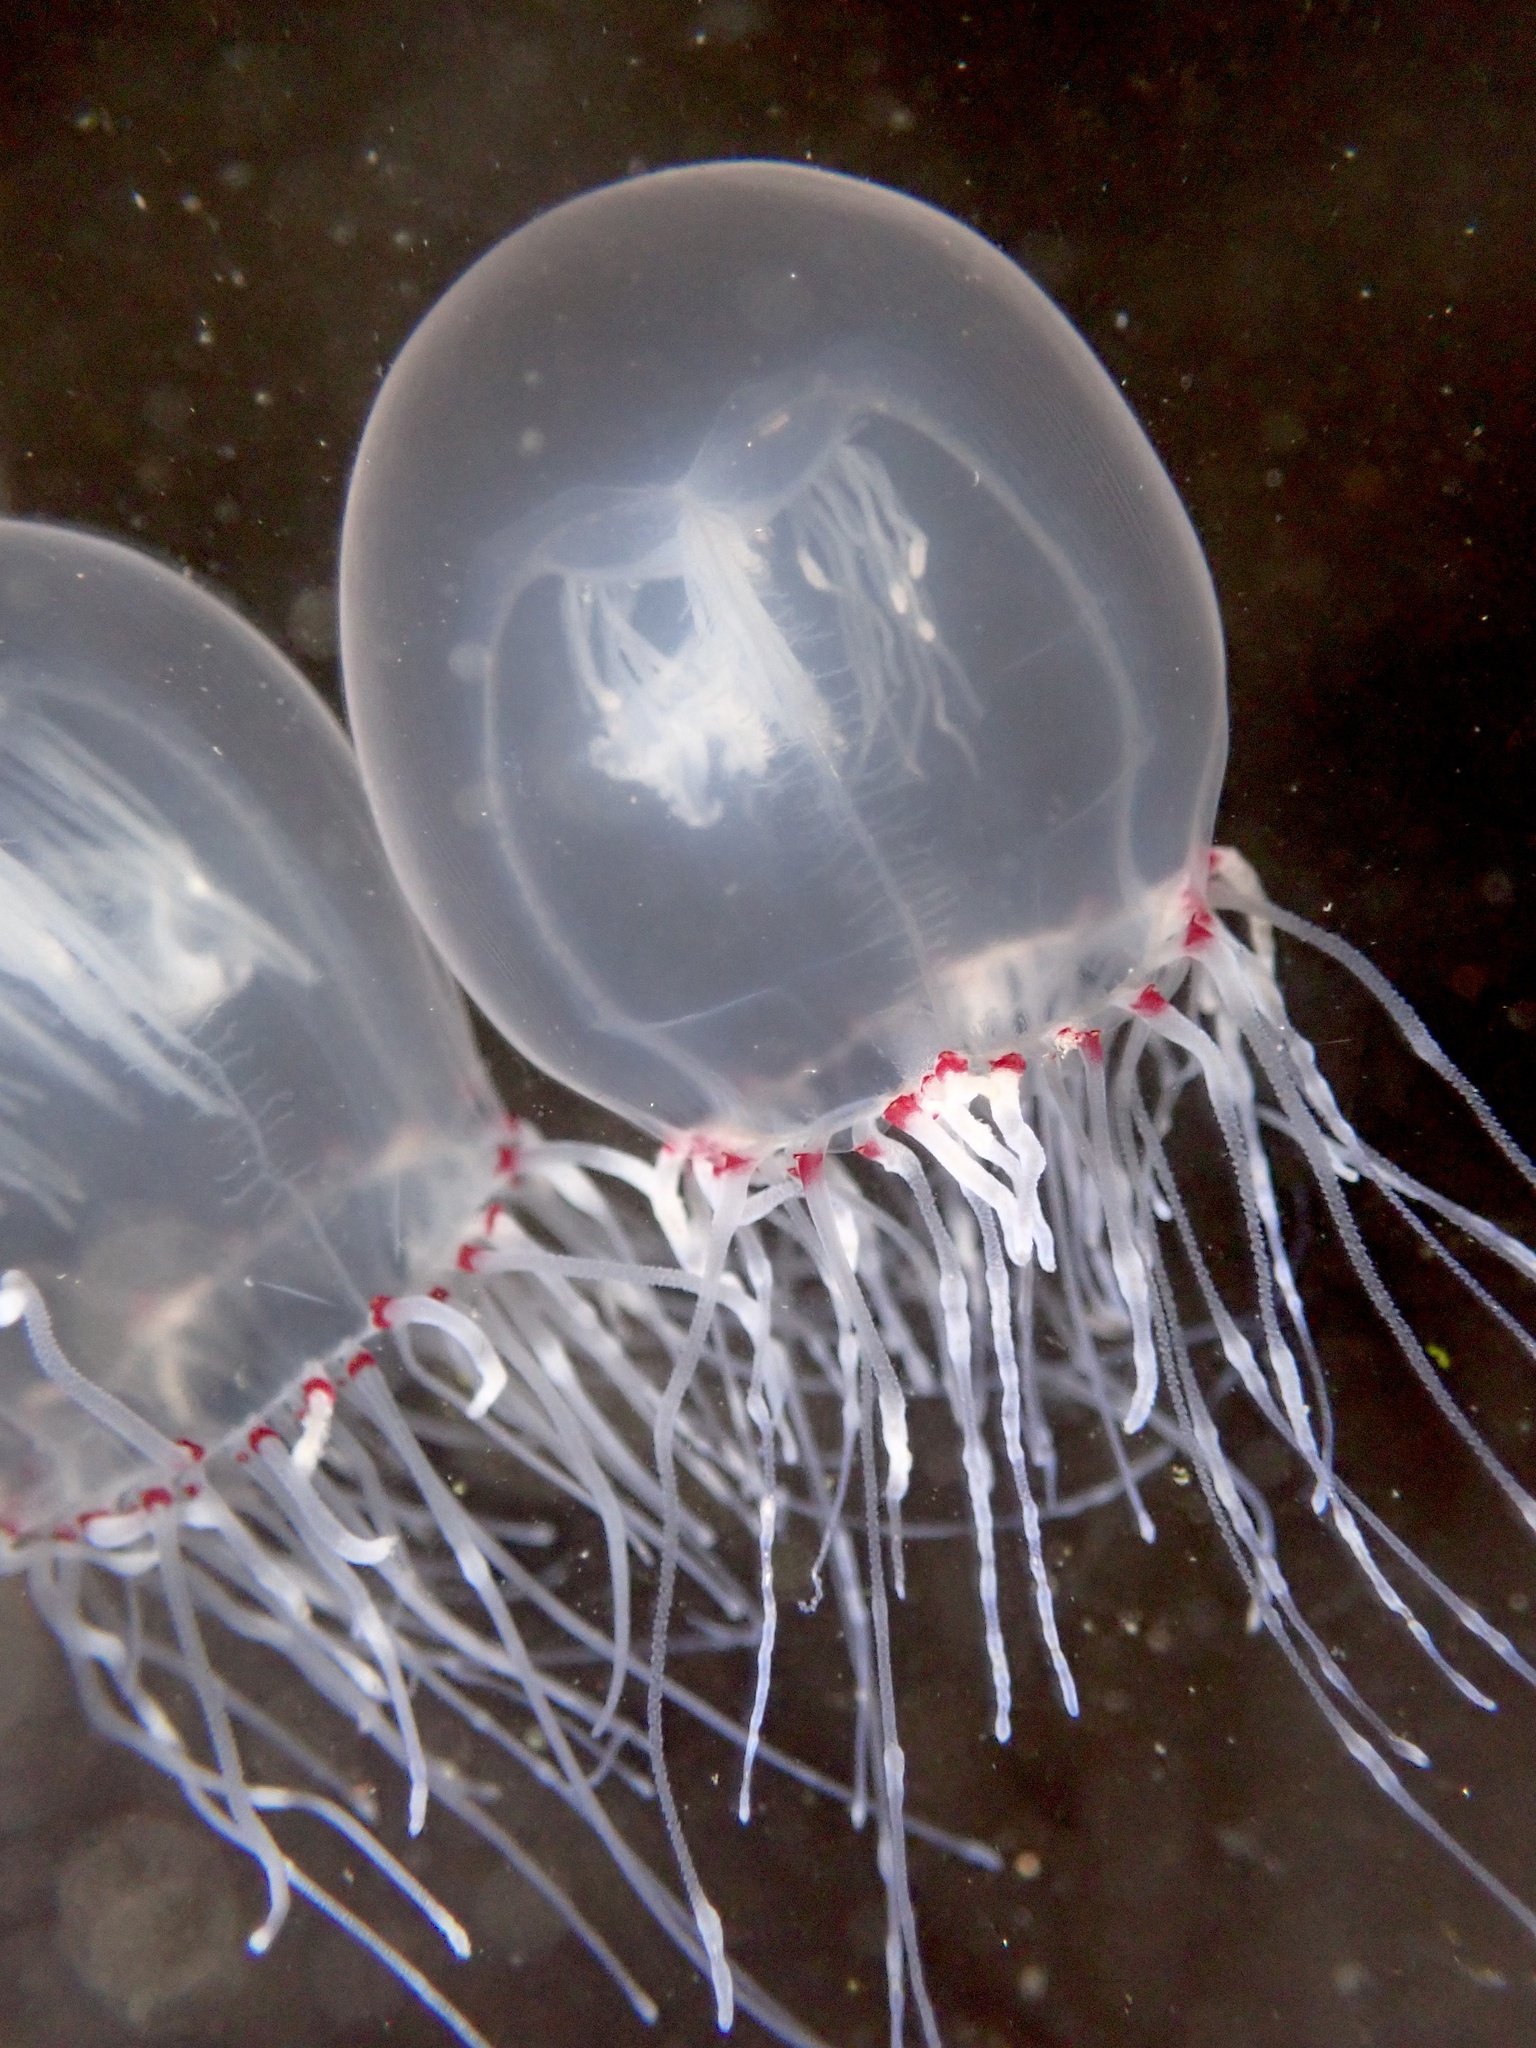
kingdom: Animalia
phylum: Cnidaria
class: Hydrozoa
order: Anthoathecata
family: Corynidae
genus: Polyorchis
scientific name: Polyorchis penicillatus
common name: Penicillate jellyfish
